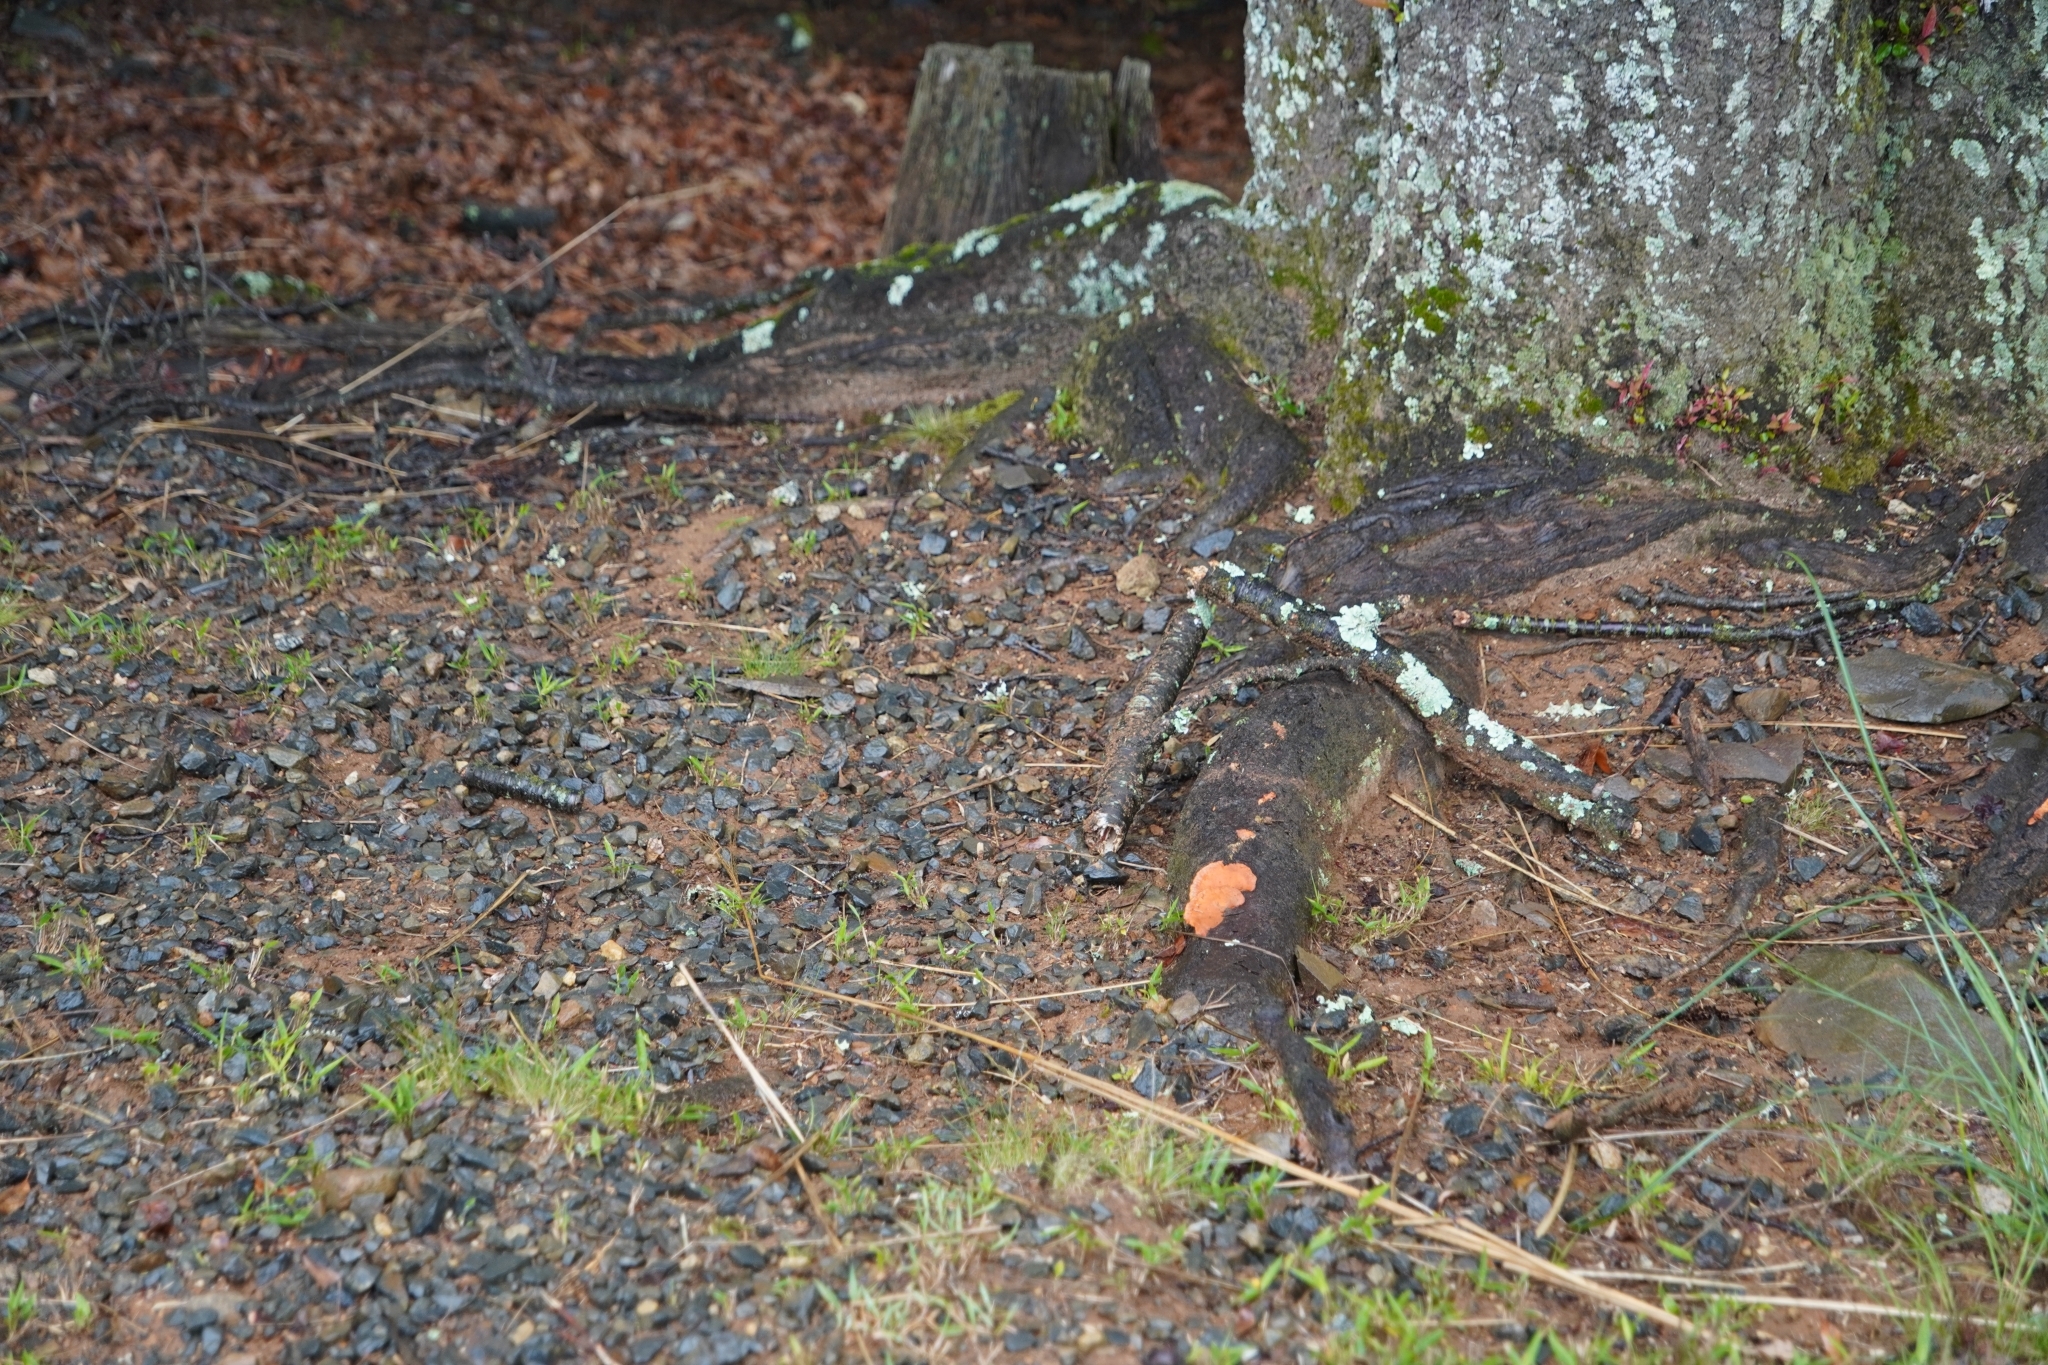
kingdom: Fungi
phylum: Basidiomycota
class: Agaricomycetes
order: Polyporales
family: Polyporaceae
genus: Trametes
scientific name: Trametes coccinea
